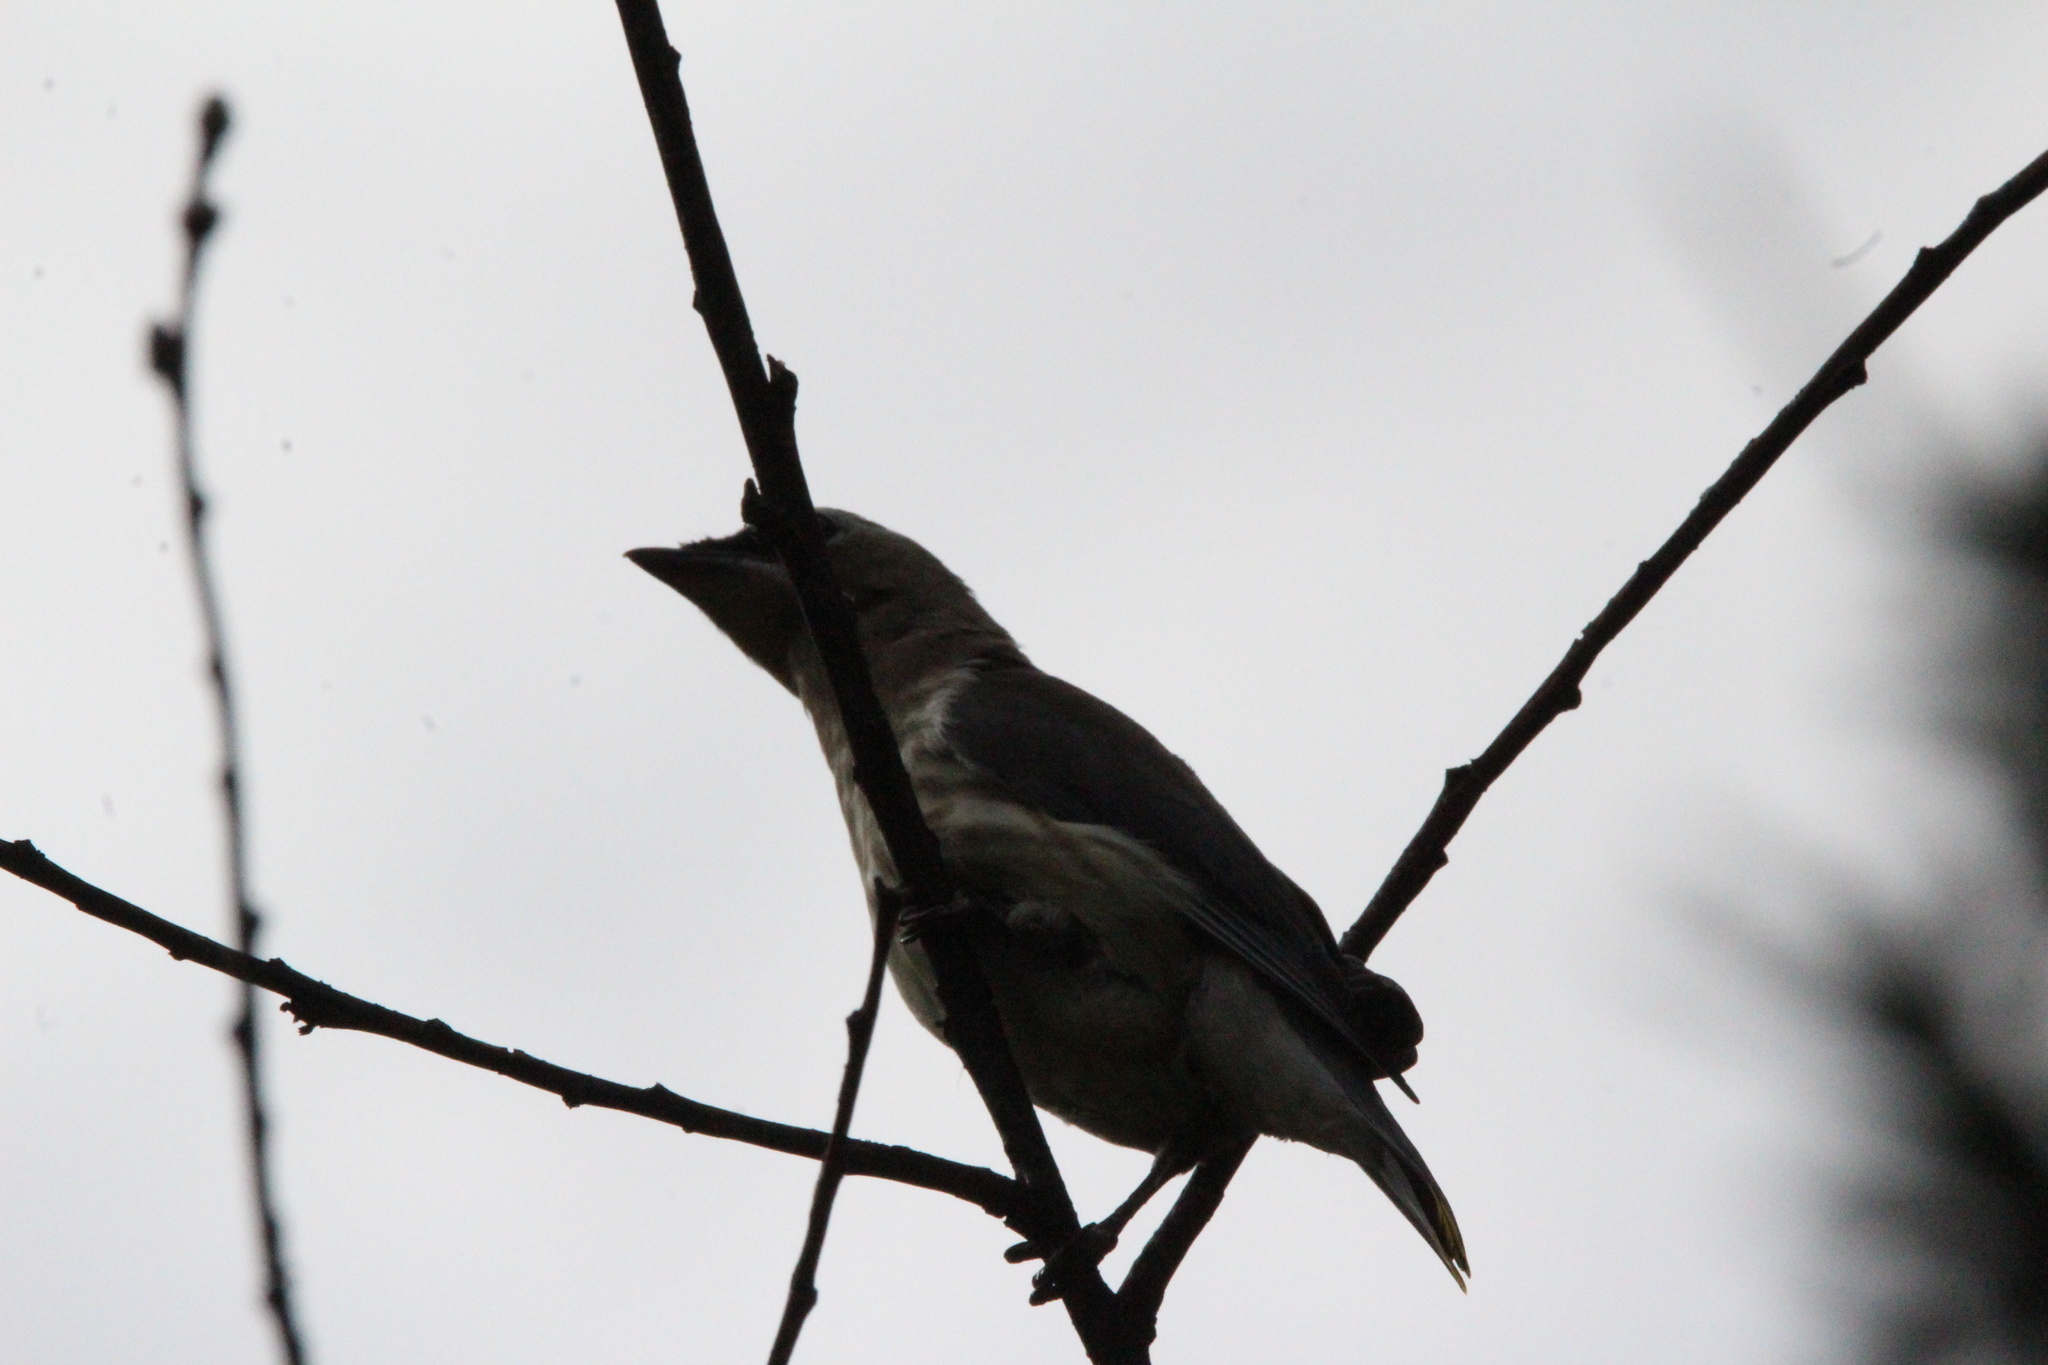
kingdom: Animalia
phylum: Chordata
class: Aves
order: Passeriformes
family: Bombycillidae
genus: Bombycilla
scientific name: Bombycilla cedrorum
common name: Cedar waxwing
